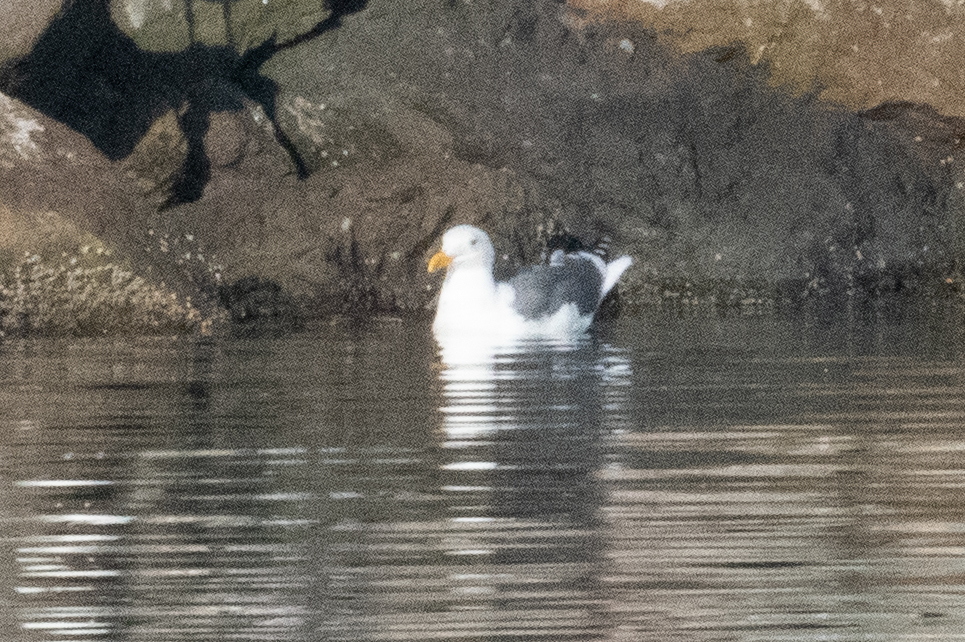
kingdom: Animalia
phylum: Chordata
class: Aves
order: Charadriiformes
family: Laridae
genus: Larus
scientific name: Larus occidentalis
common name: Western gull
